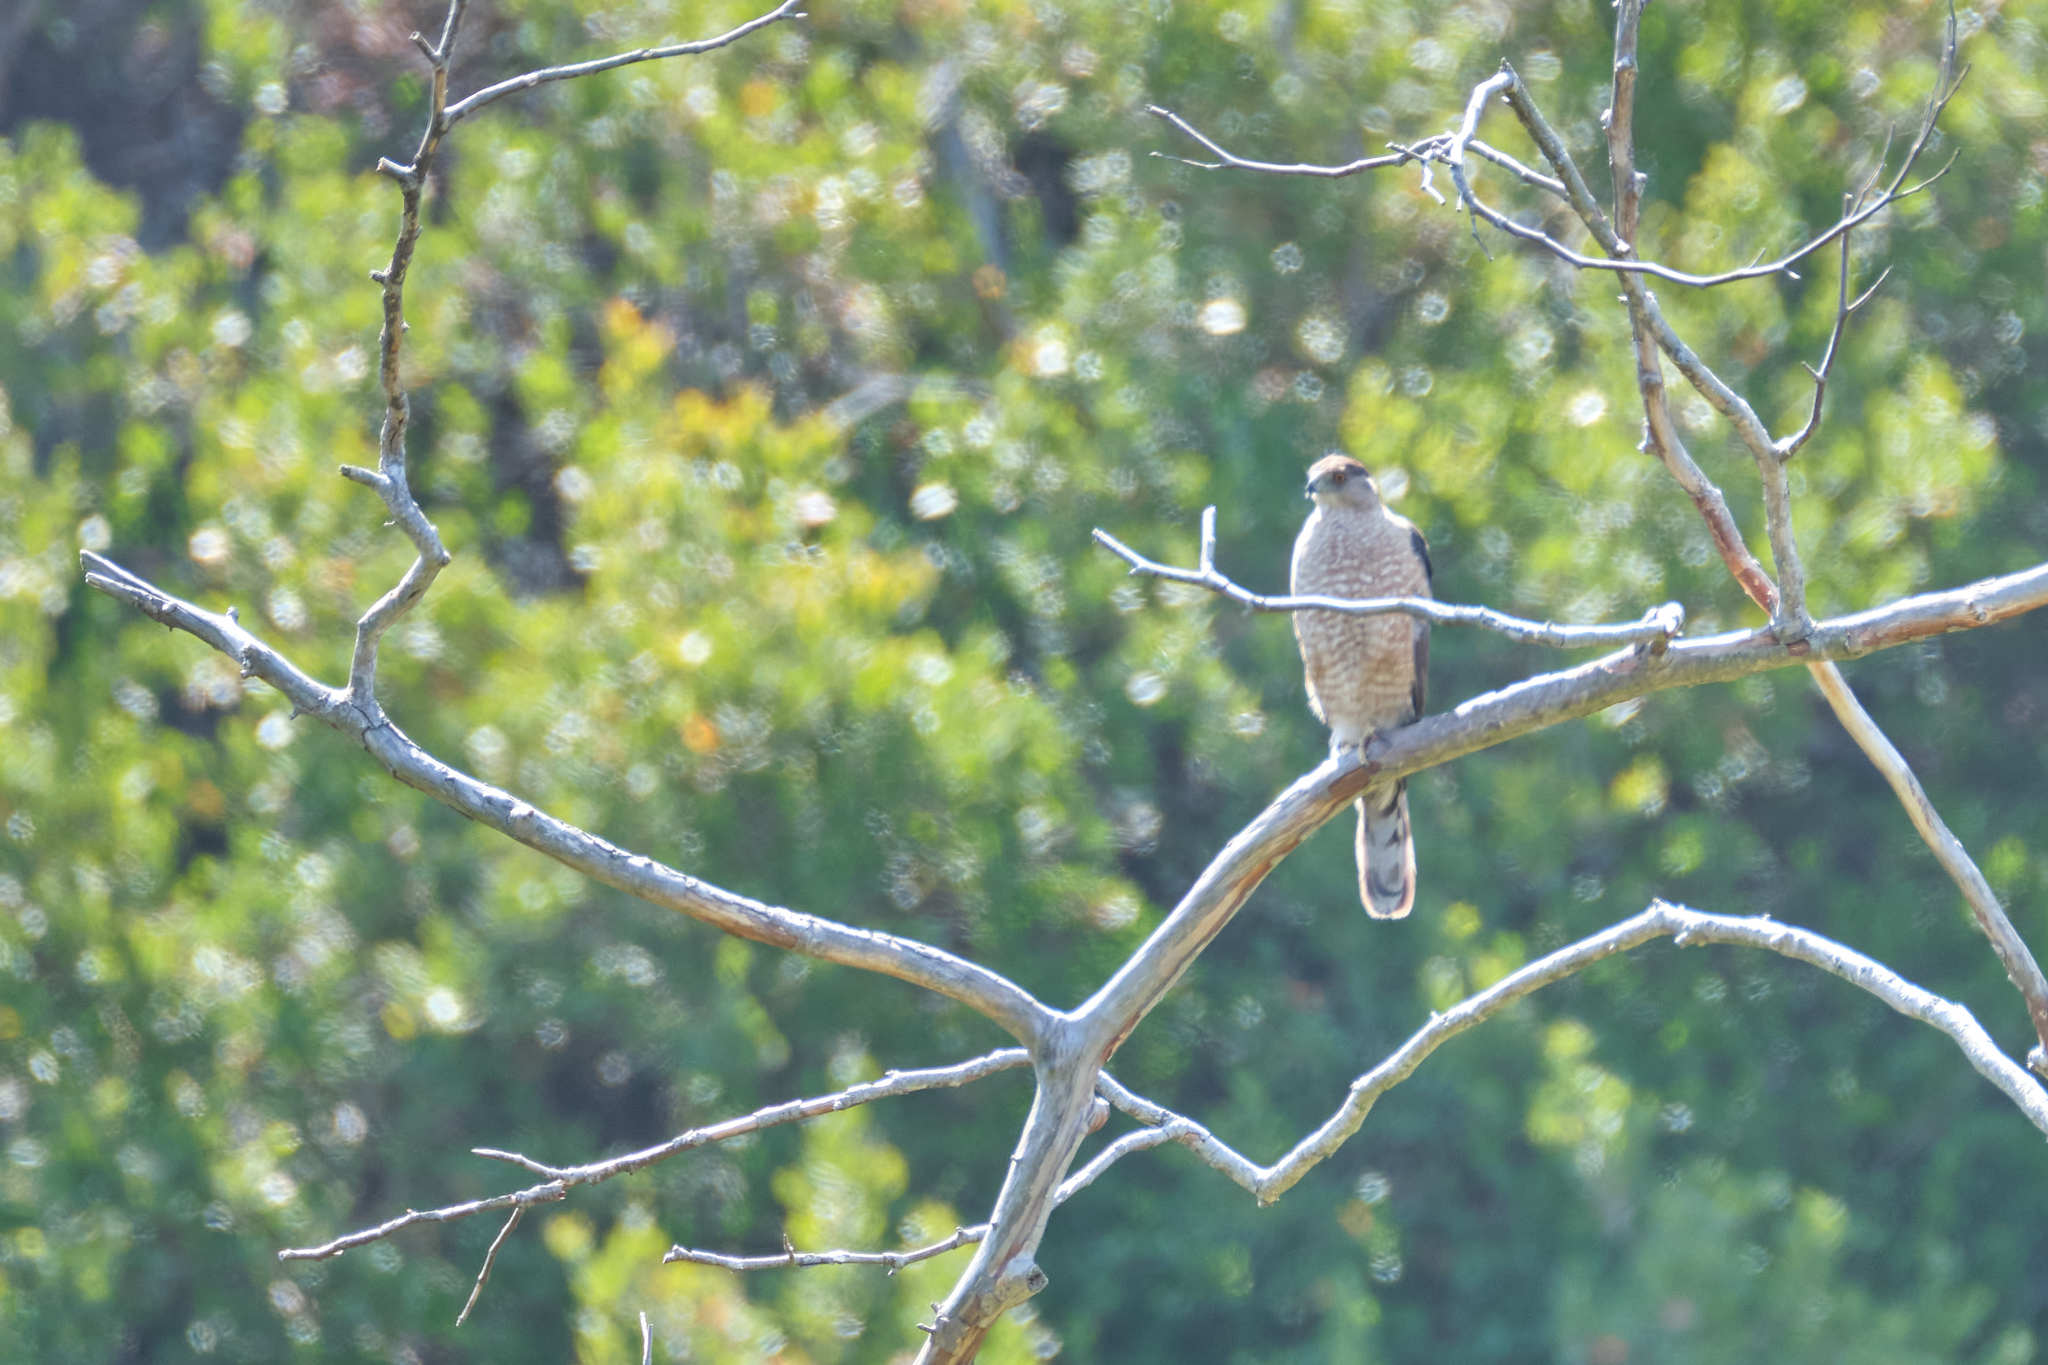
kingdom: Animalia
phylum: Chordata
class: Aves
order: Accipitriformes
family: Accipitridae
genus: Accipiter
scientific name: Accipiter cooperii
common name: Cooper's hawk
